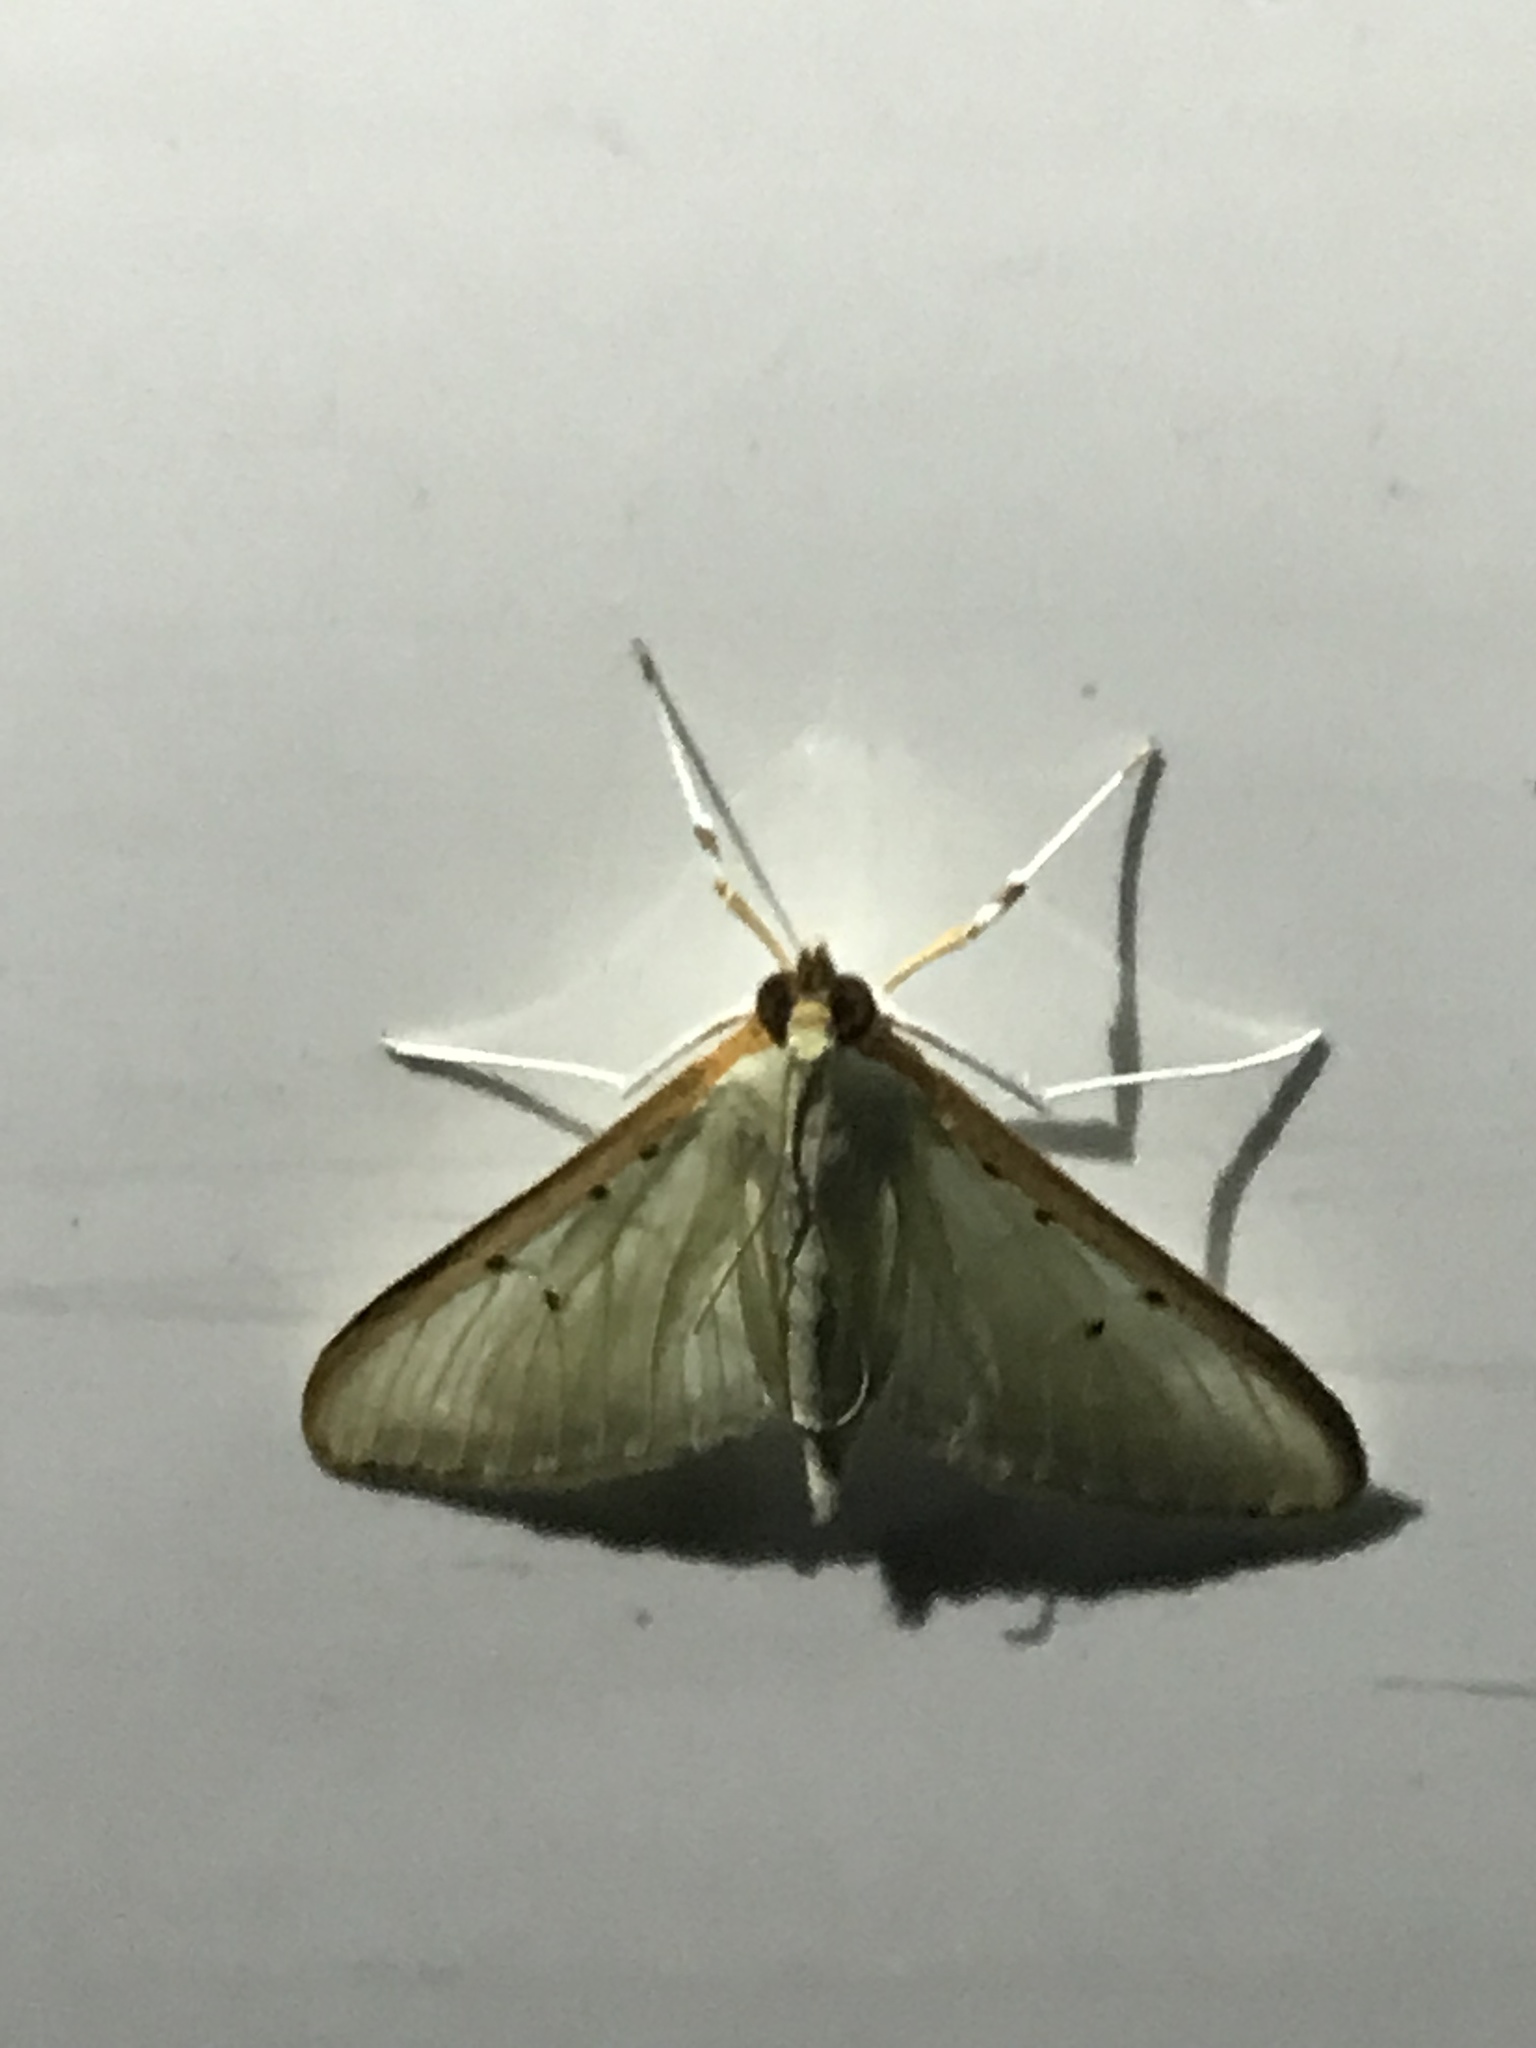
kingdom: Animalia
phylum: Arthropoda
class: Insecta
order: Lepidoptera
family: Crambidae
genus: Palpita
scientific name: Palpita quadristigmalis
